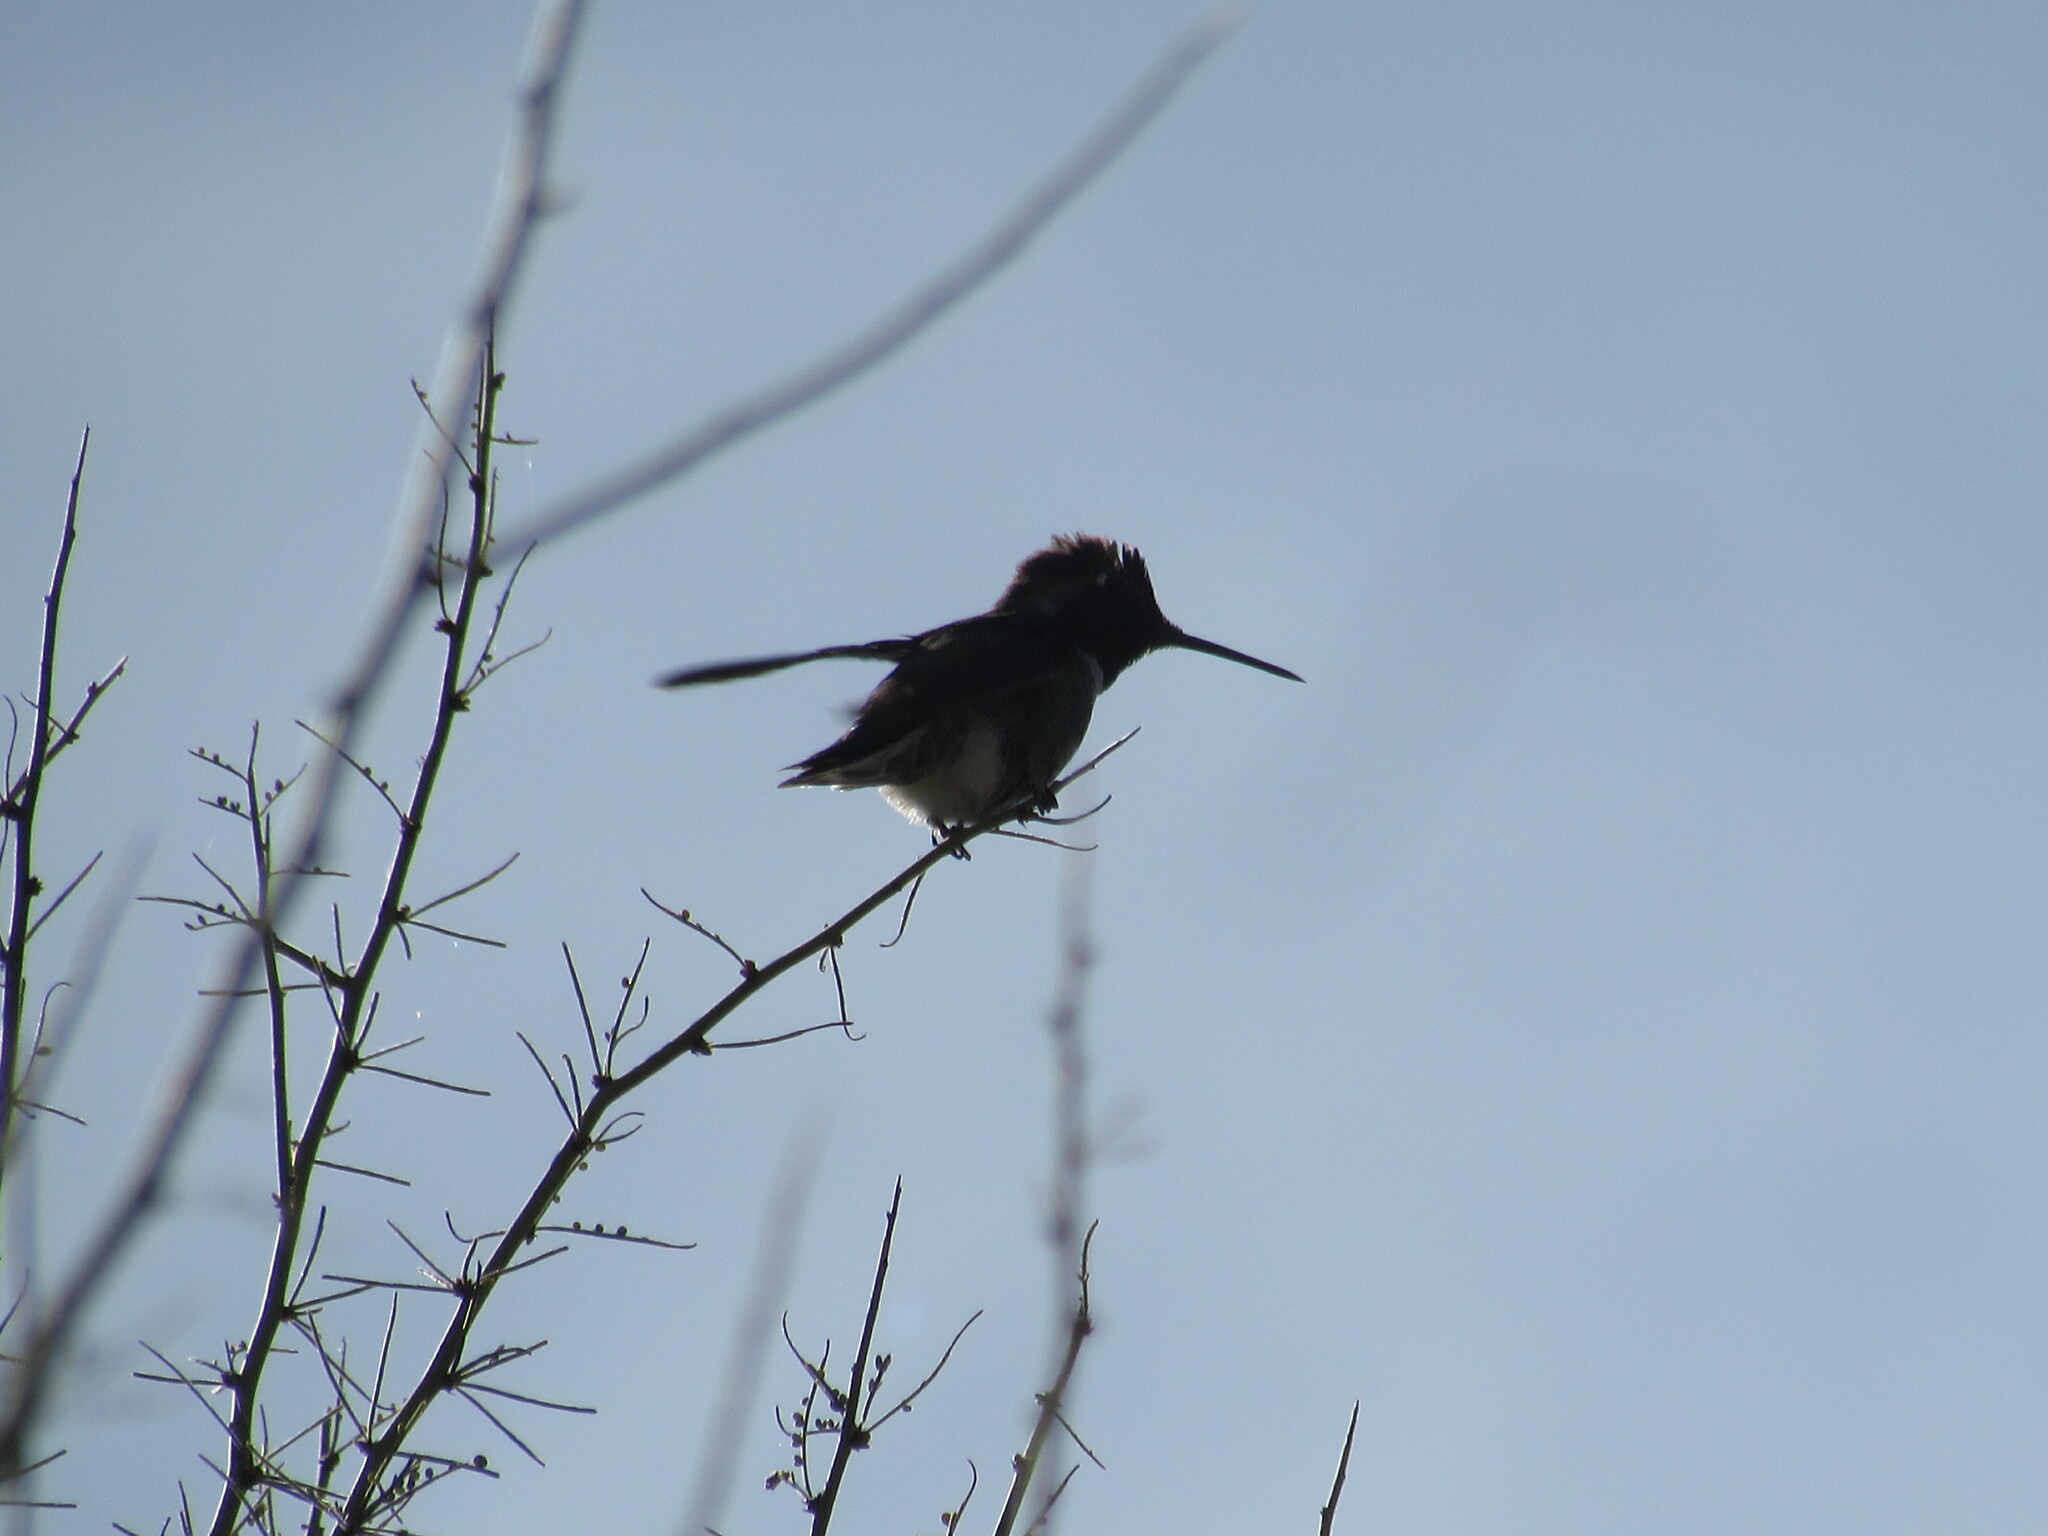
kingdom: Animalia
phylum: Chordata
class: Aves
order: Apodiformes
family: Trochilidae
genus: Calypte
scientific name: Calypte anna
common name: Anna's hummingbird
